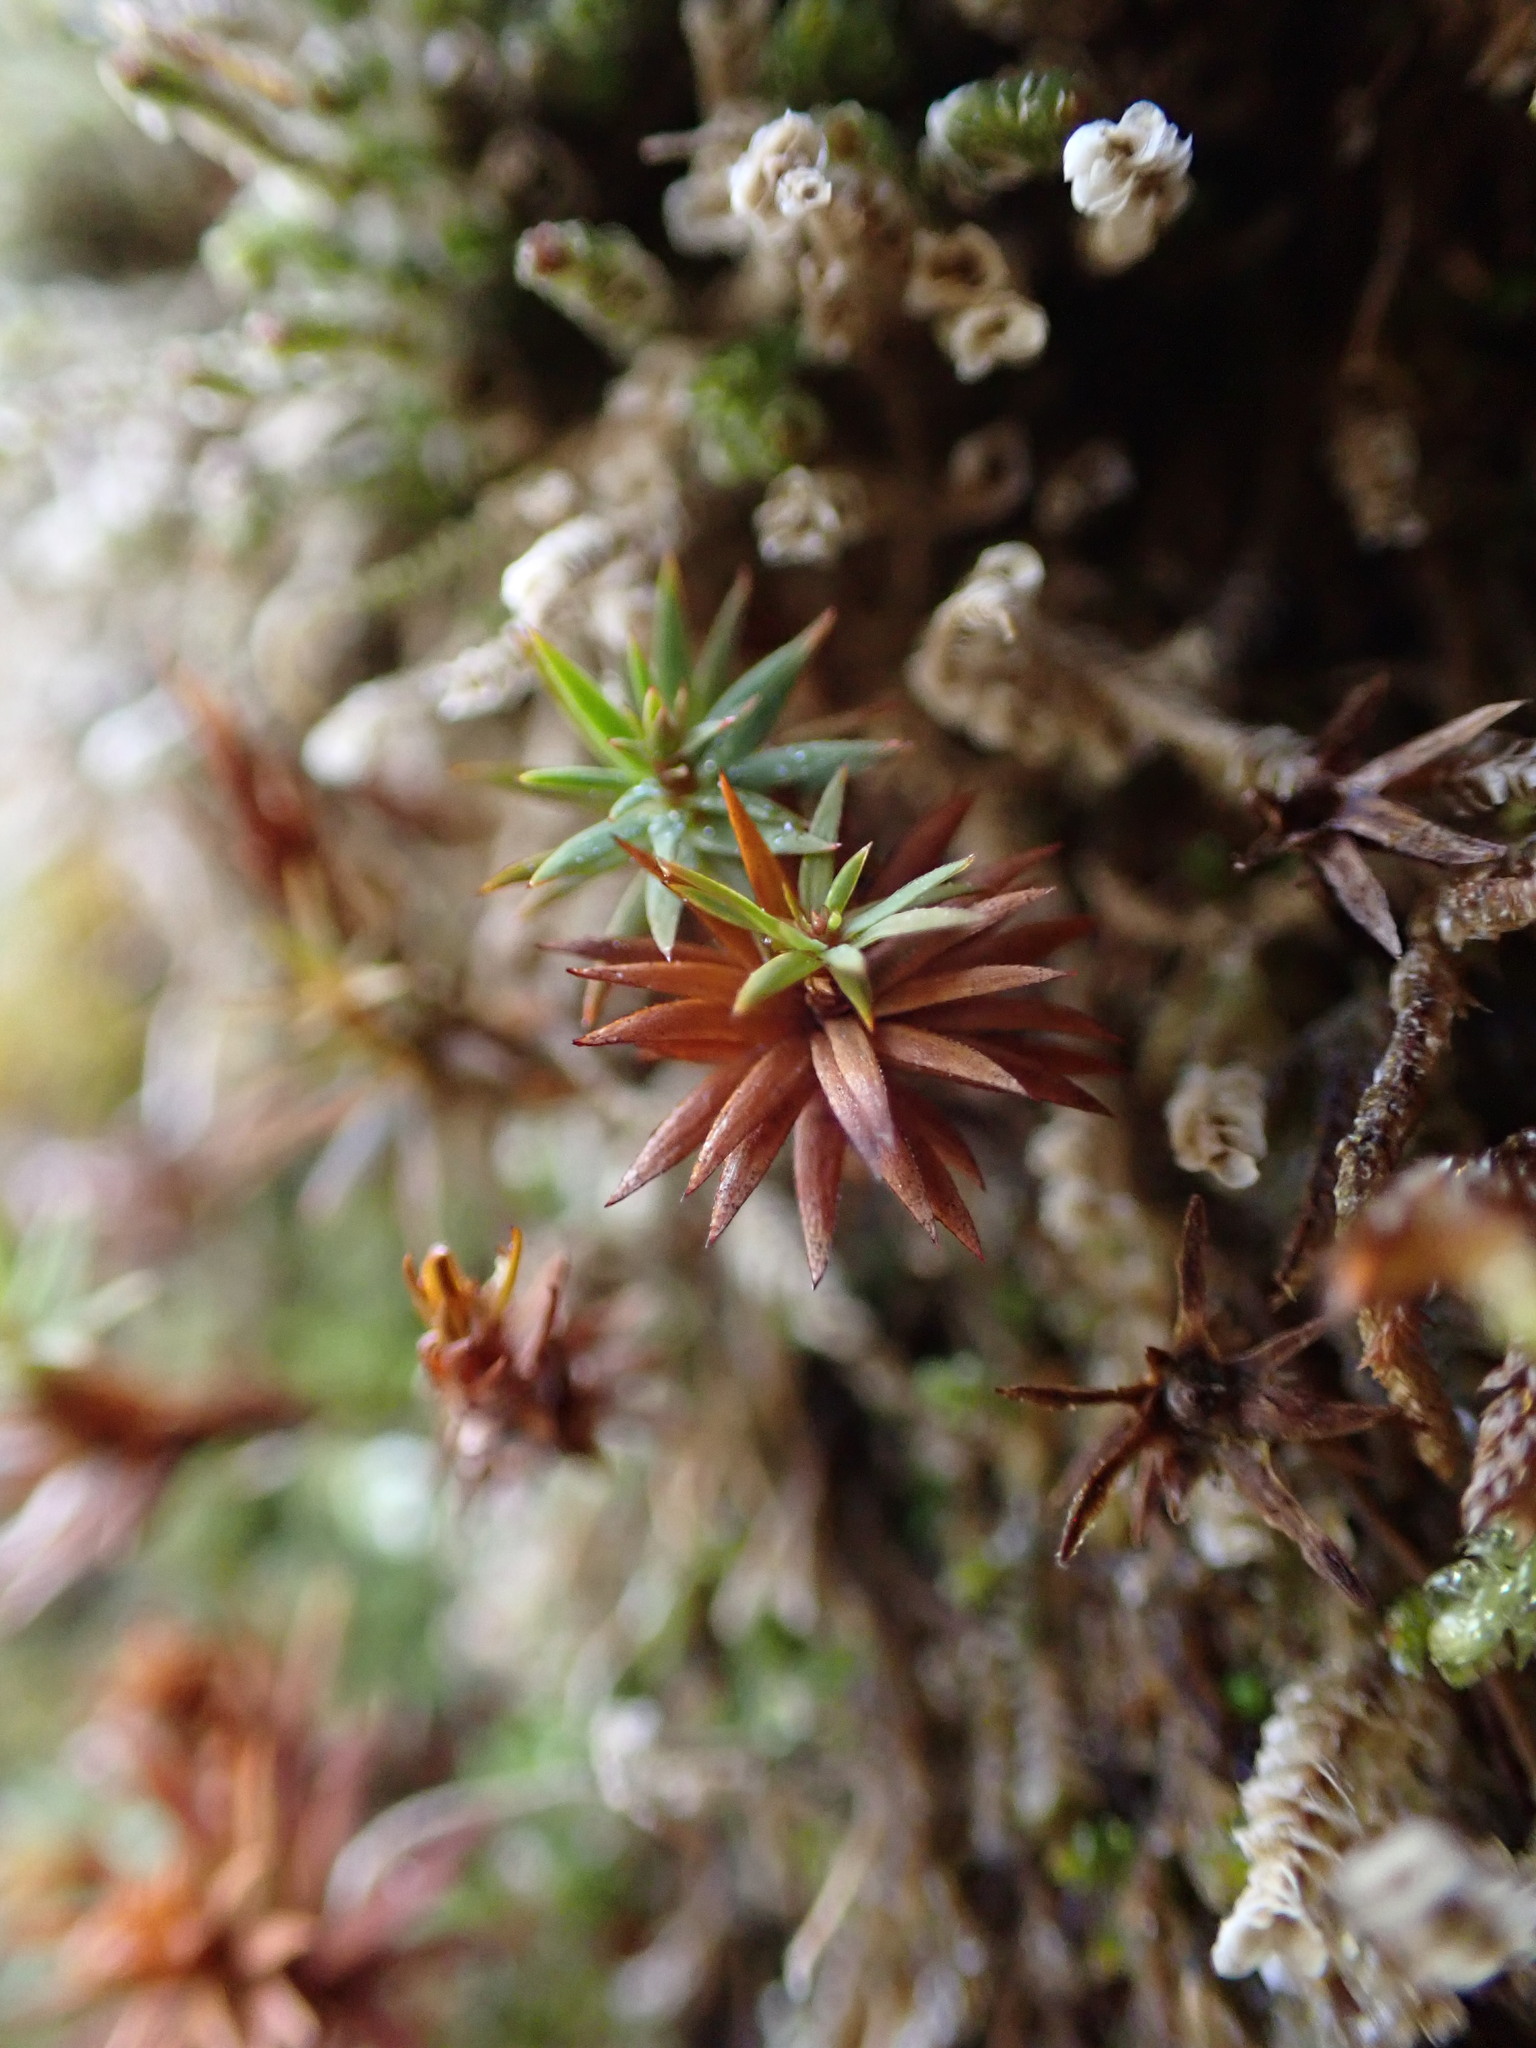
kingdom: Plantae
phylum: Bryophyta
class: Polytrichopsida
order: Polytrichales
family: Polytrichaceae
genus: Pogonatum
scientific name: Pogonatum urnigerum
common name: Urn hair moss
